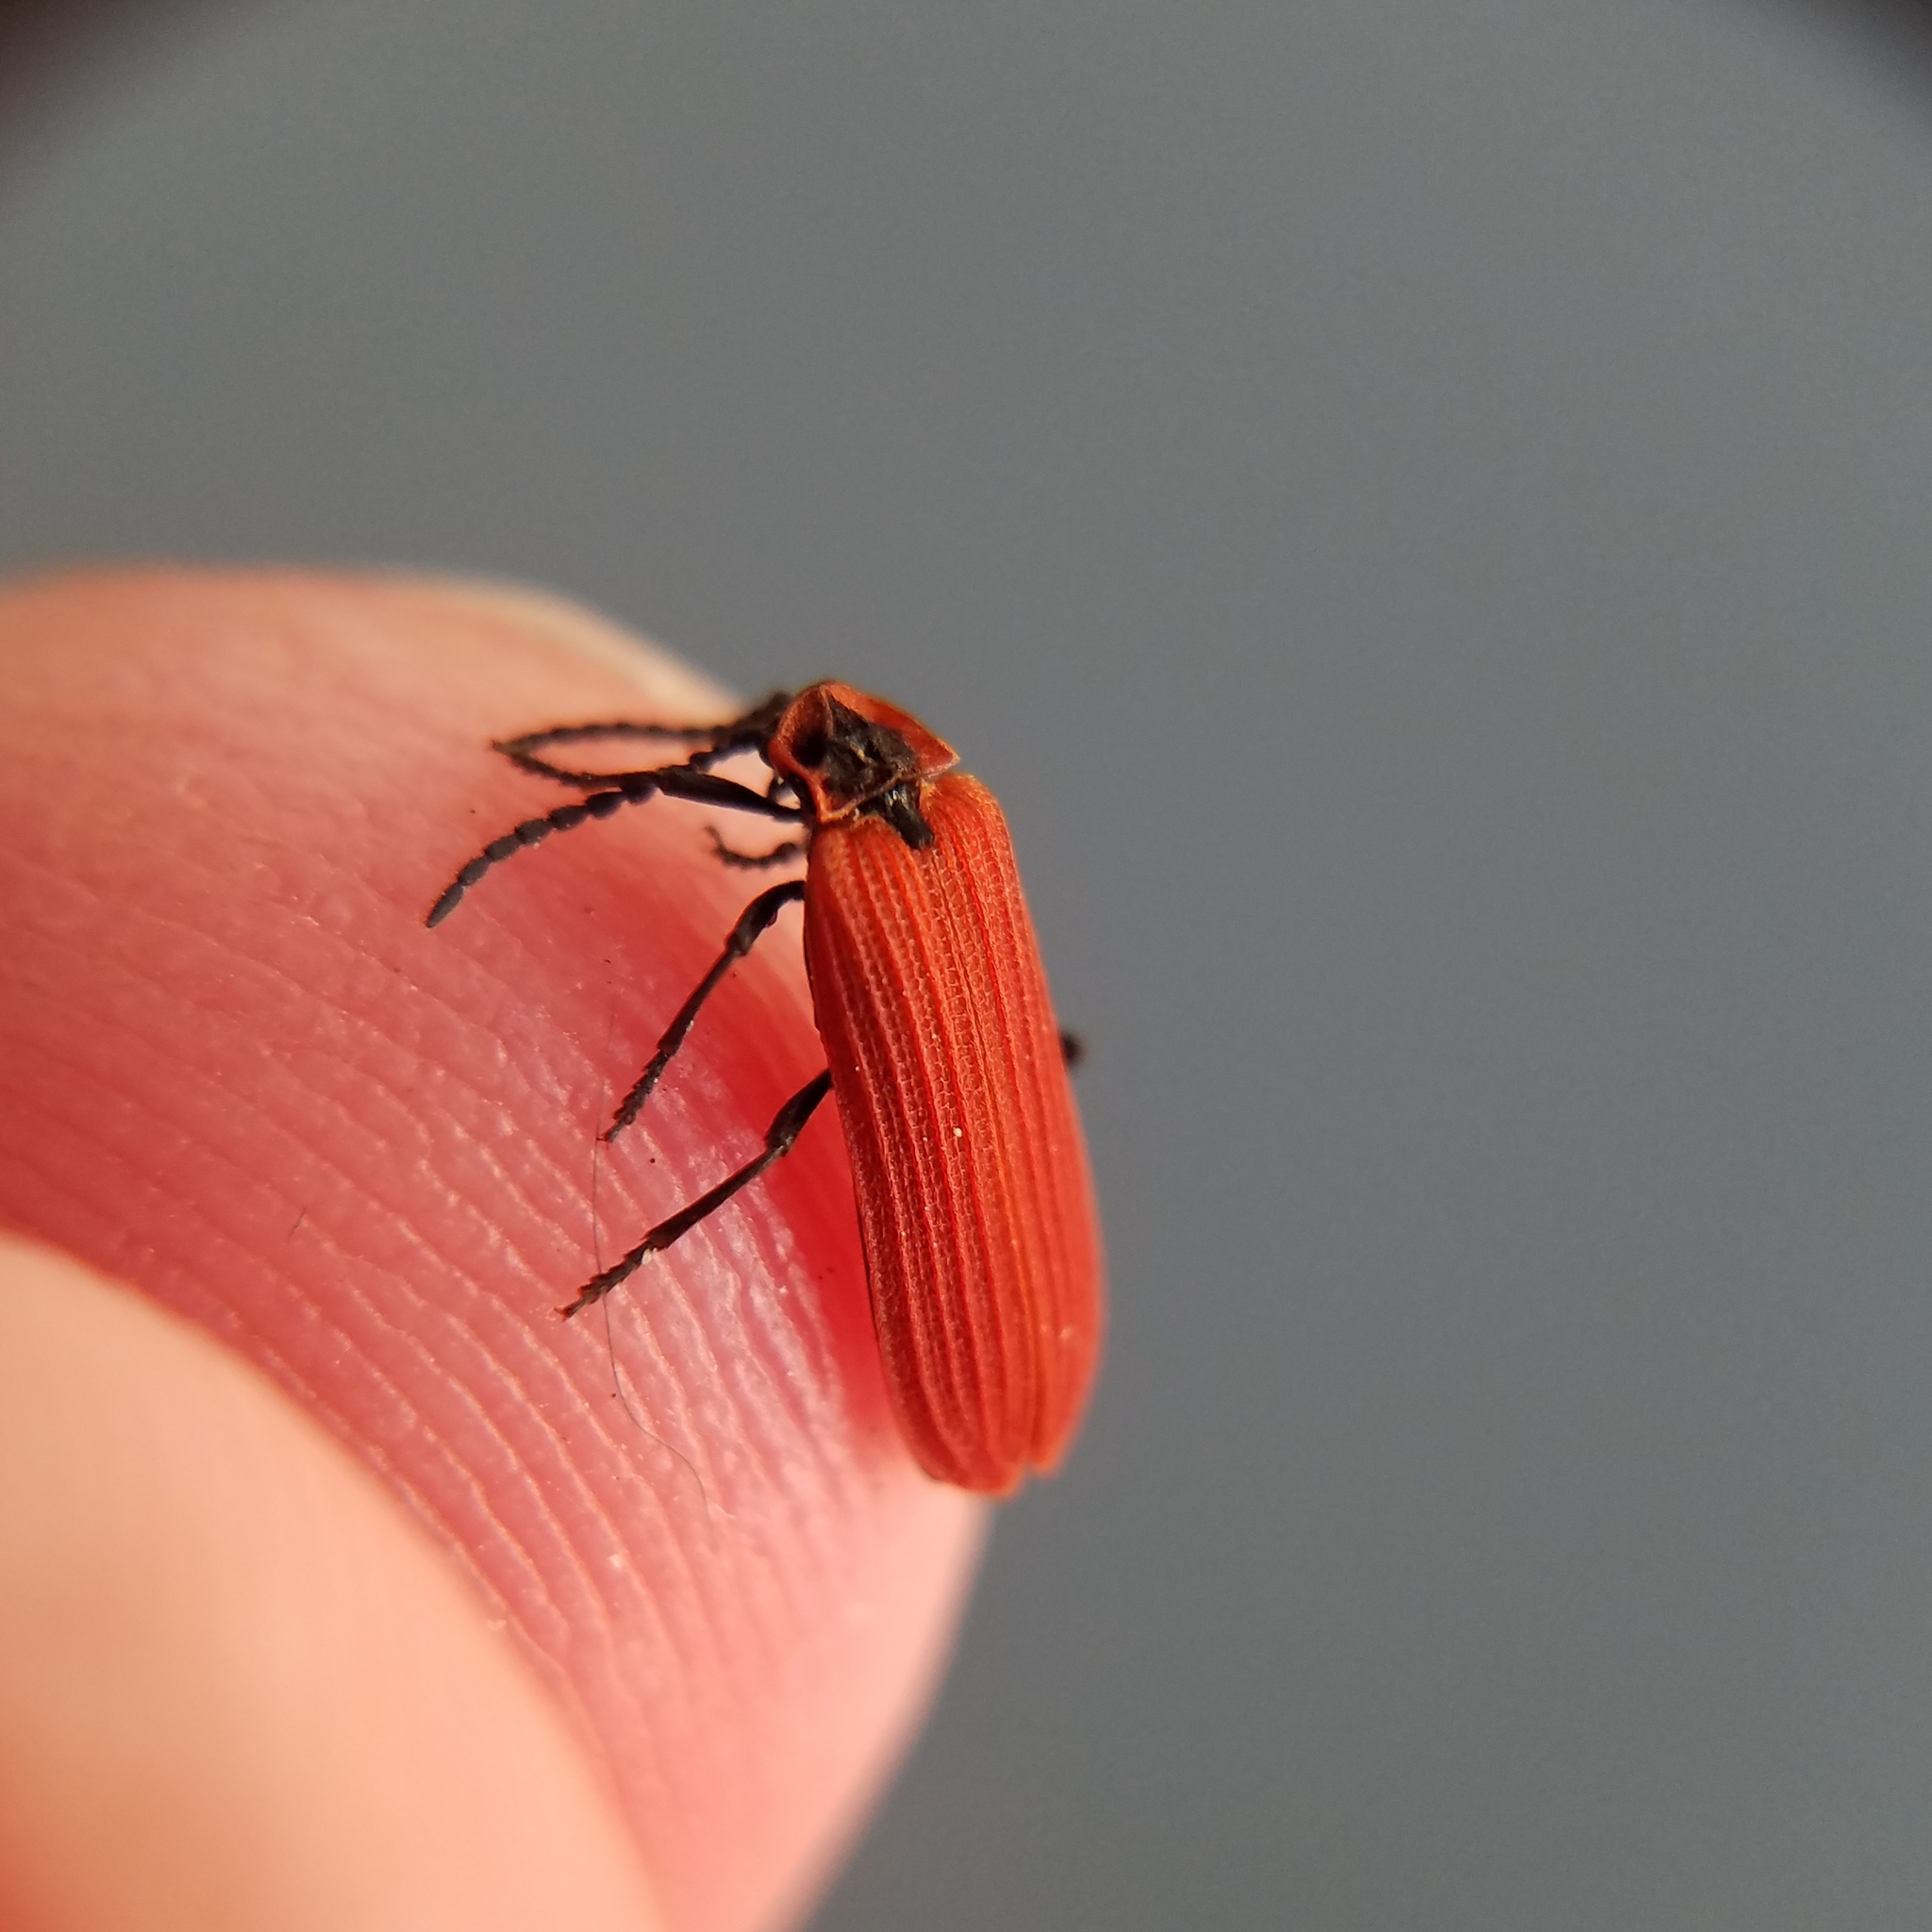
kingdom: Animalia
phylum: Arthropoda
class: Insecta
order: Coleoptera
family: Lycidae
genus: Dictyoptera
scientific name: Dictyoptera aurora
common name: Golden net-winged beetle
